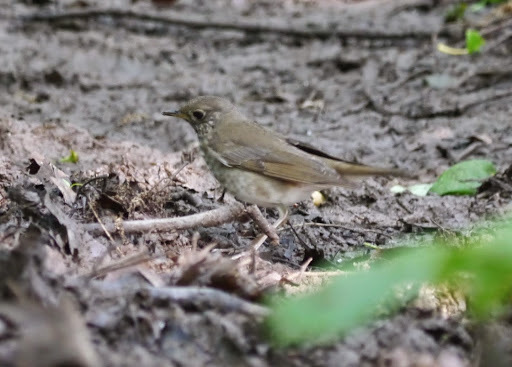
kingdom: Animalia
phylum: Chordata
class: Aves
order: Passeriformes
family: Turdidae
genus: Catharus
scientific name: Catharus minimus
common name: Grey-cheeked thrush
